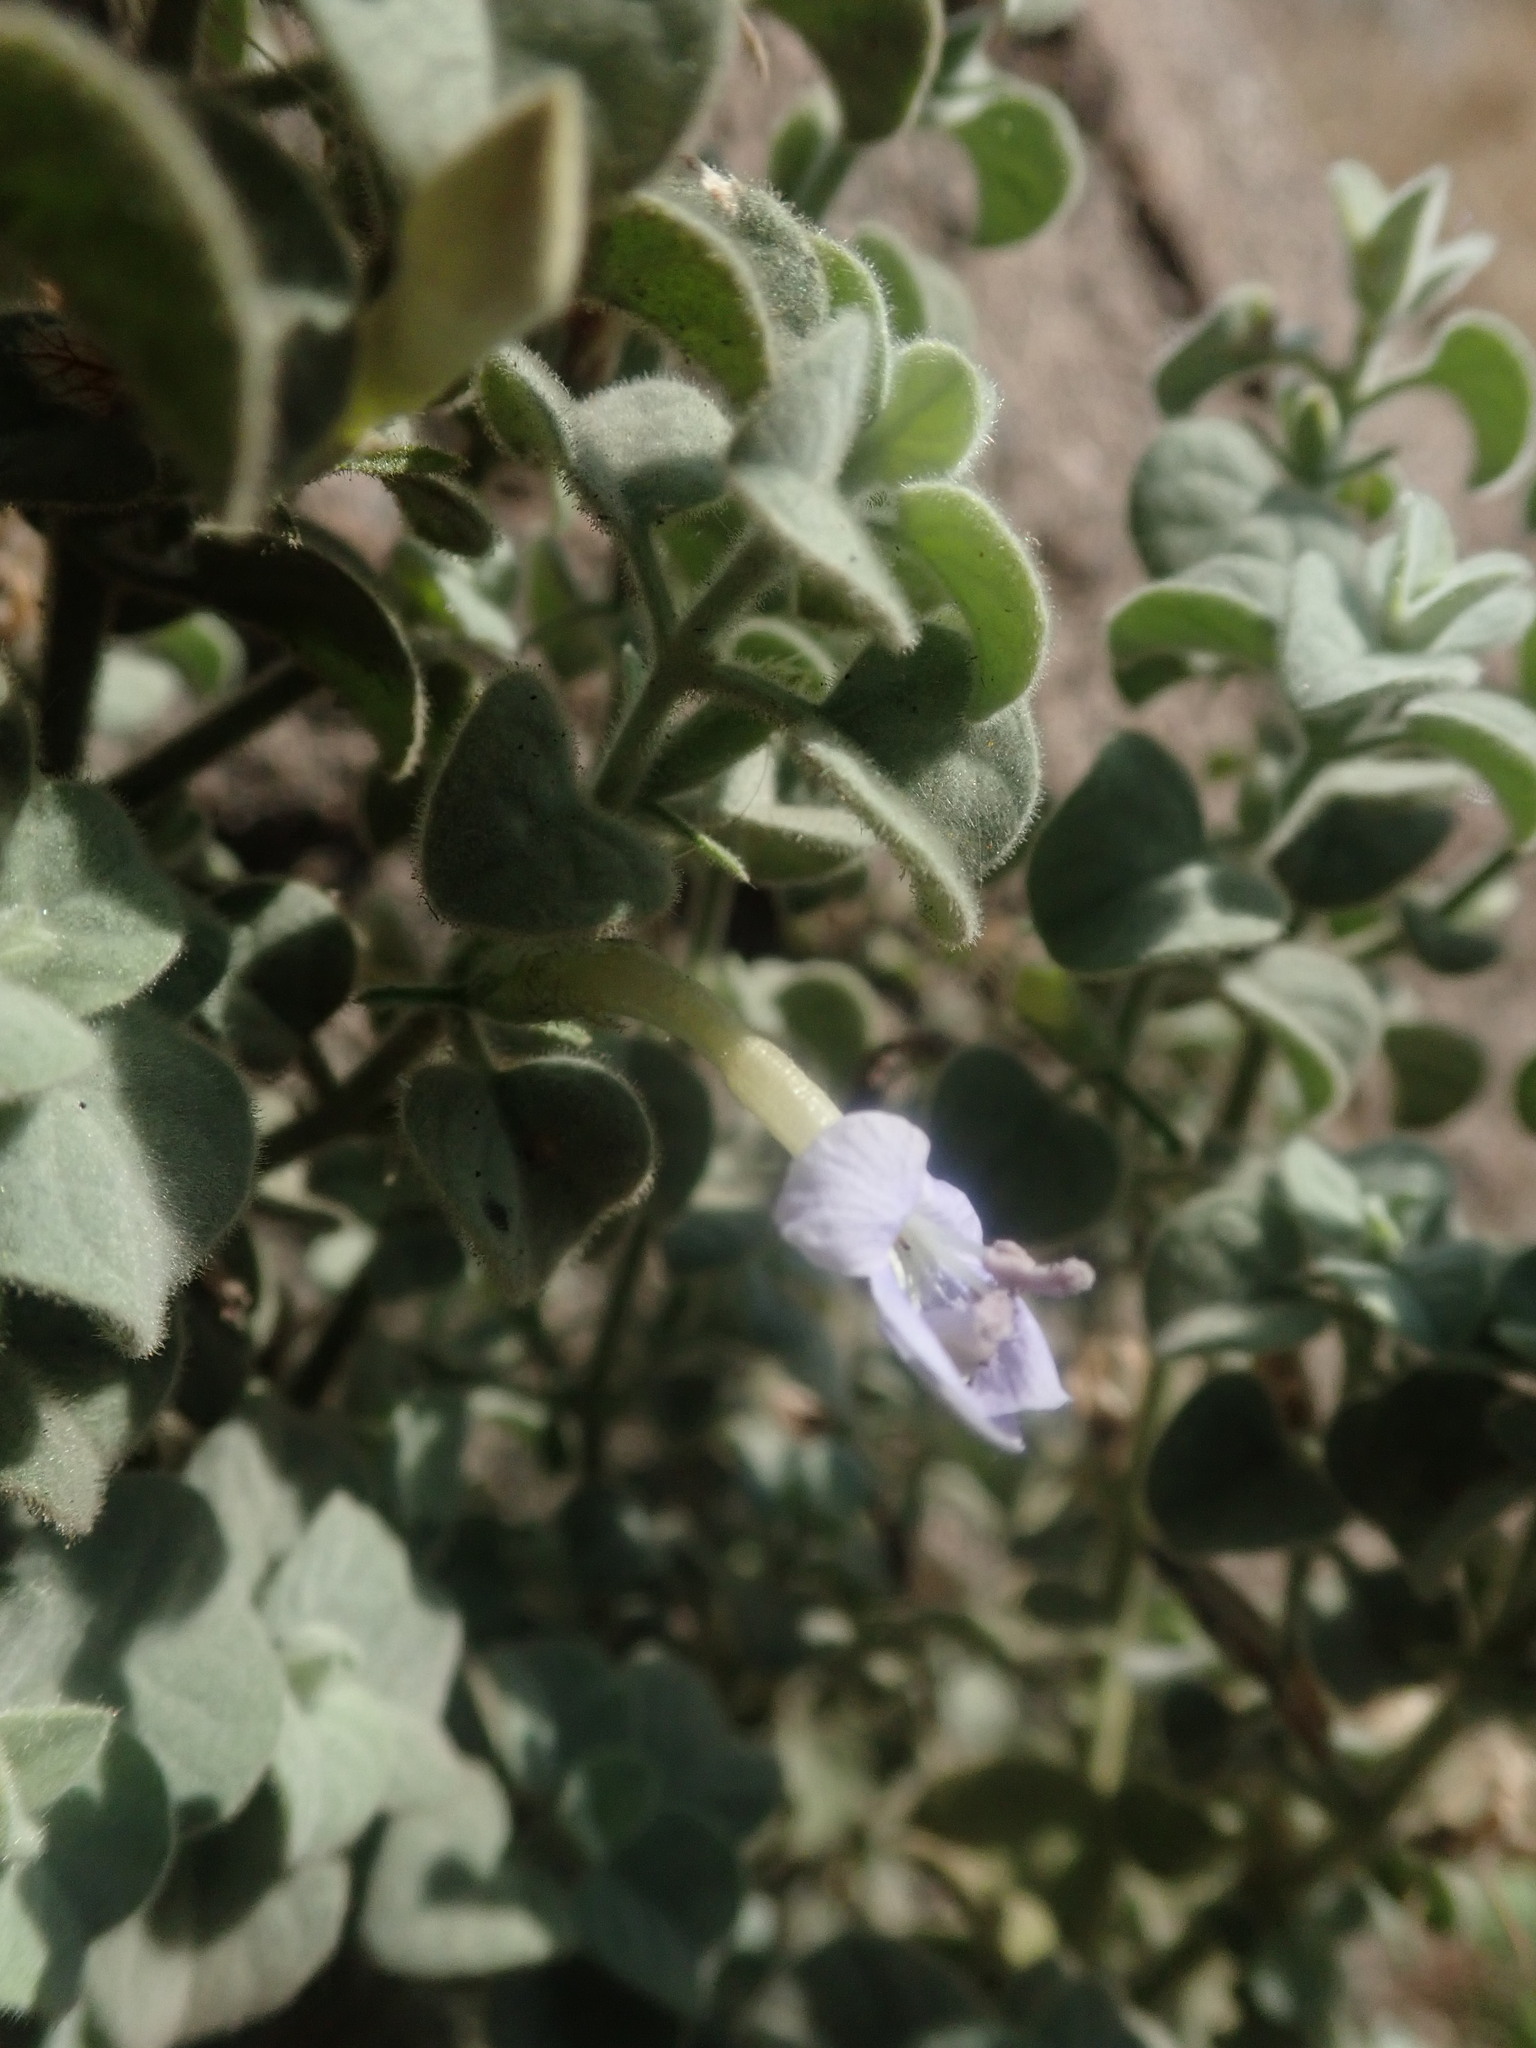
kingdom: Plantae
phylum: Tracheophyta
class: Magnoliopsida
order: Lamiales
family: Acanthaceae
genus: Barleria
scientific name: Barleria heterotricha
